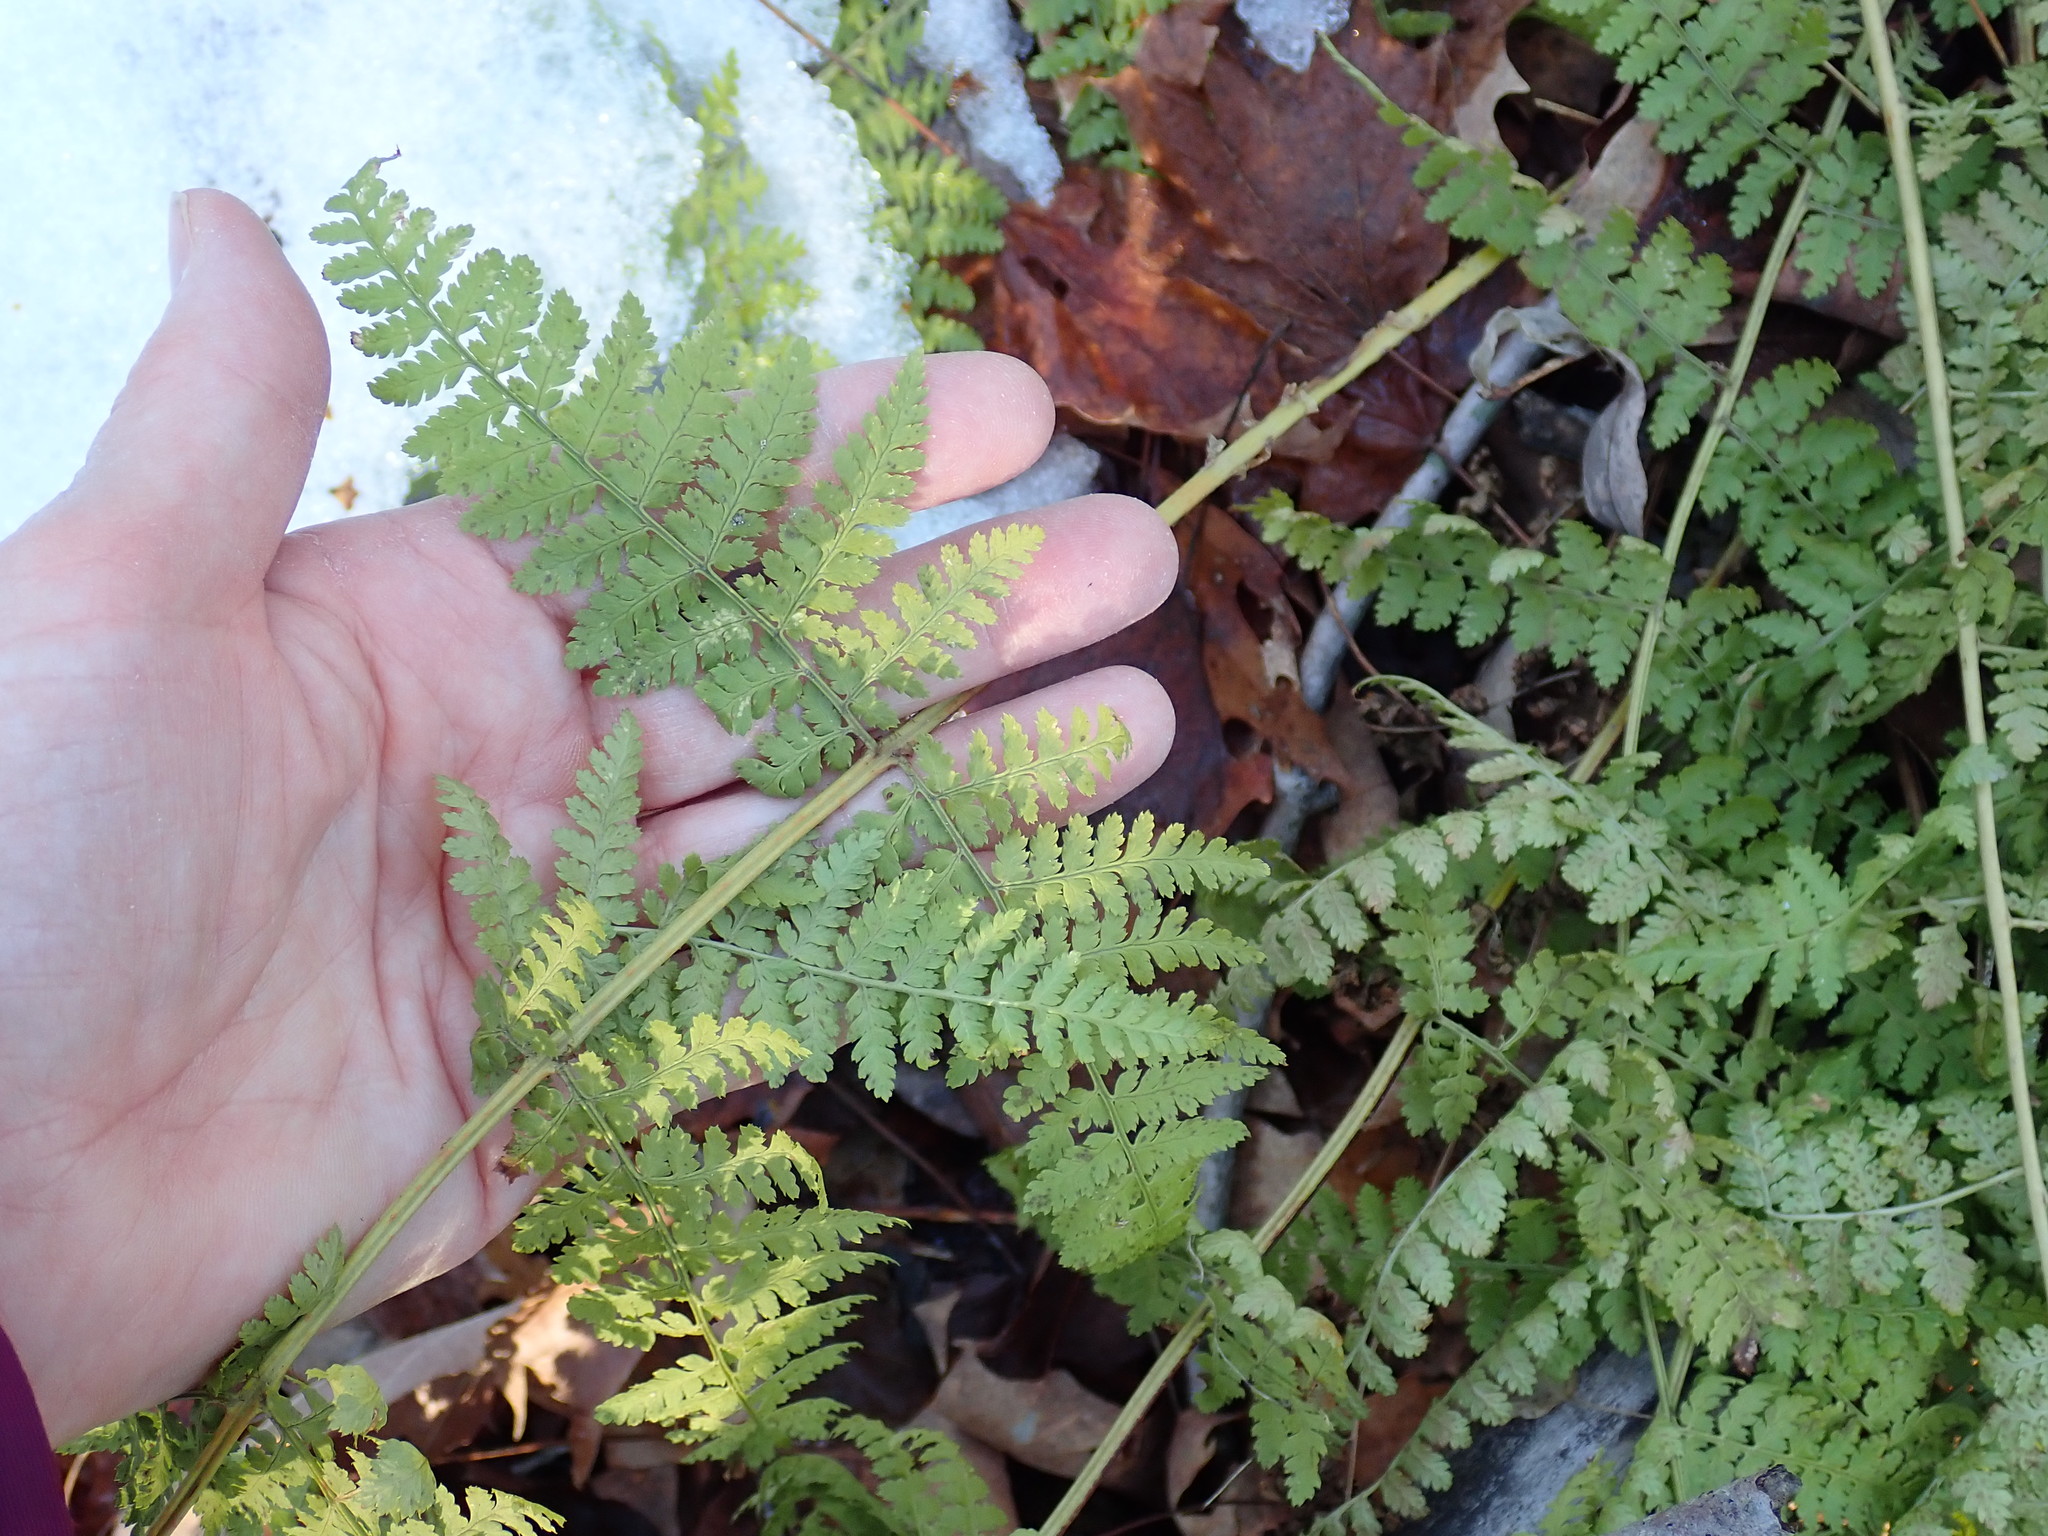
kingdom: Plantae
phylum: Tracheophyta
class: Polypodiopsida
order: Polypodiales
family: Dryopteridaceae
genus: Dryopteris
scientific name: Dryopteris intermedia
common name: Evergreen wood fern
